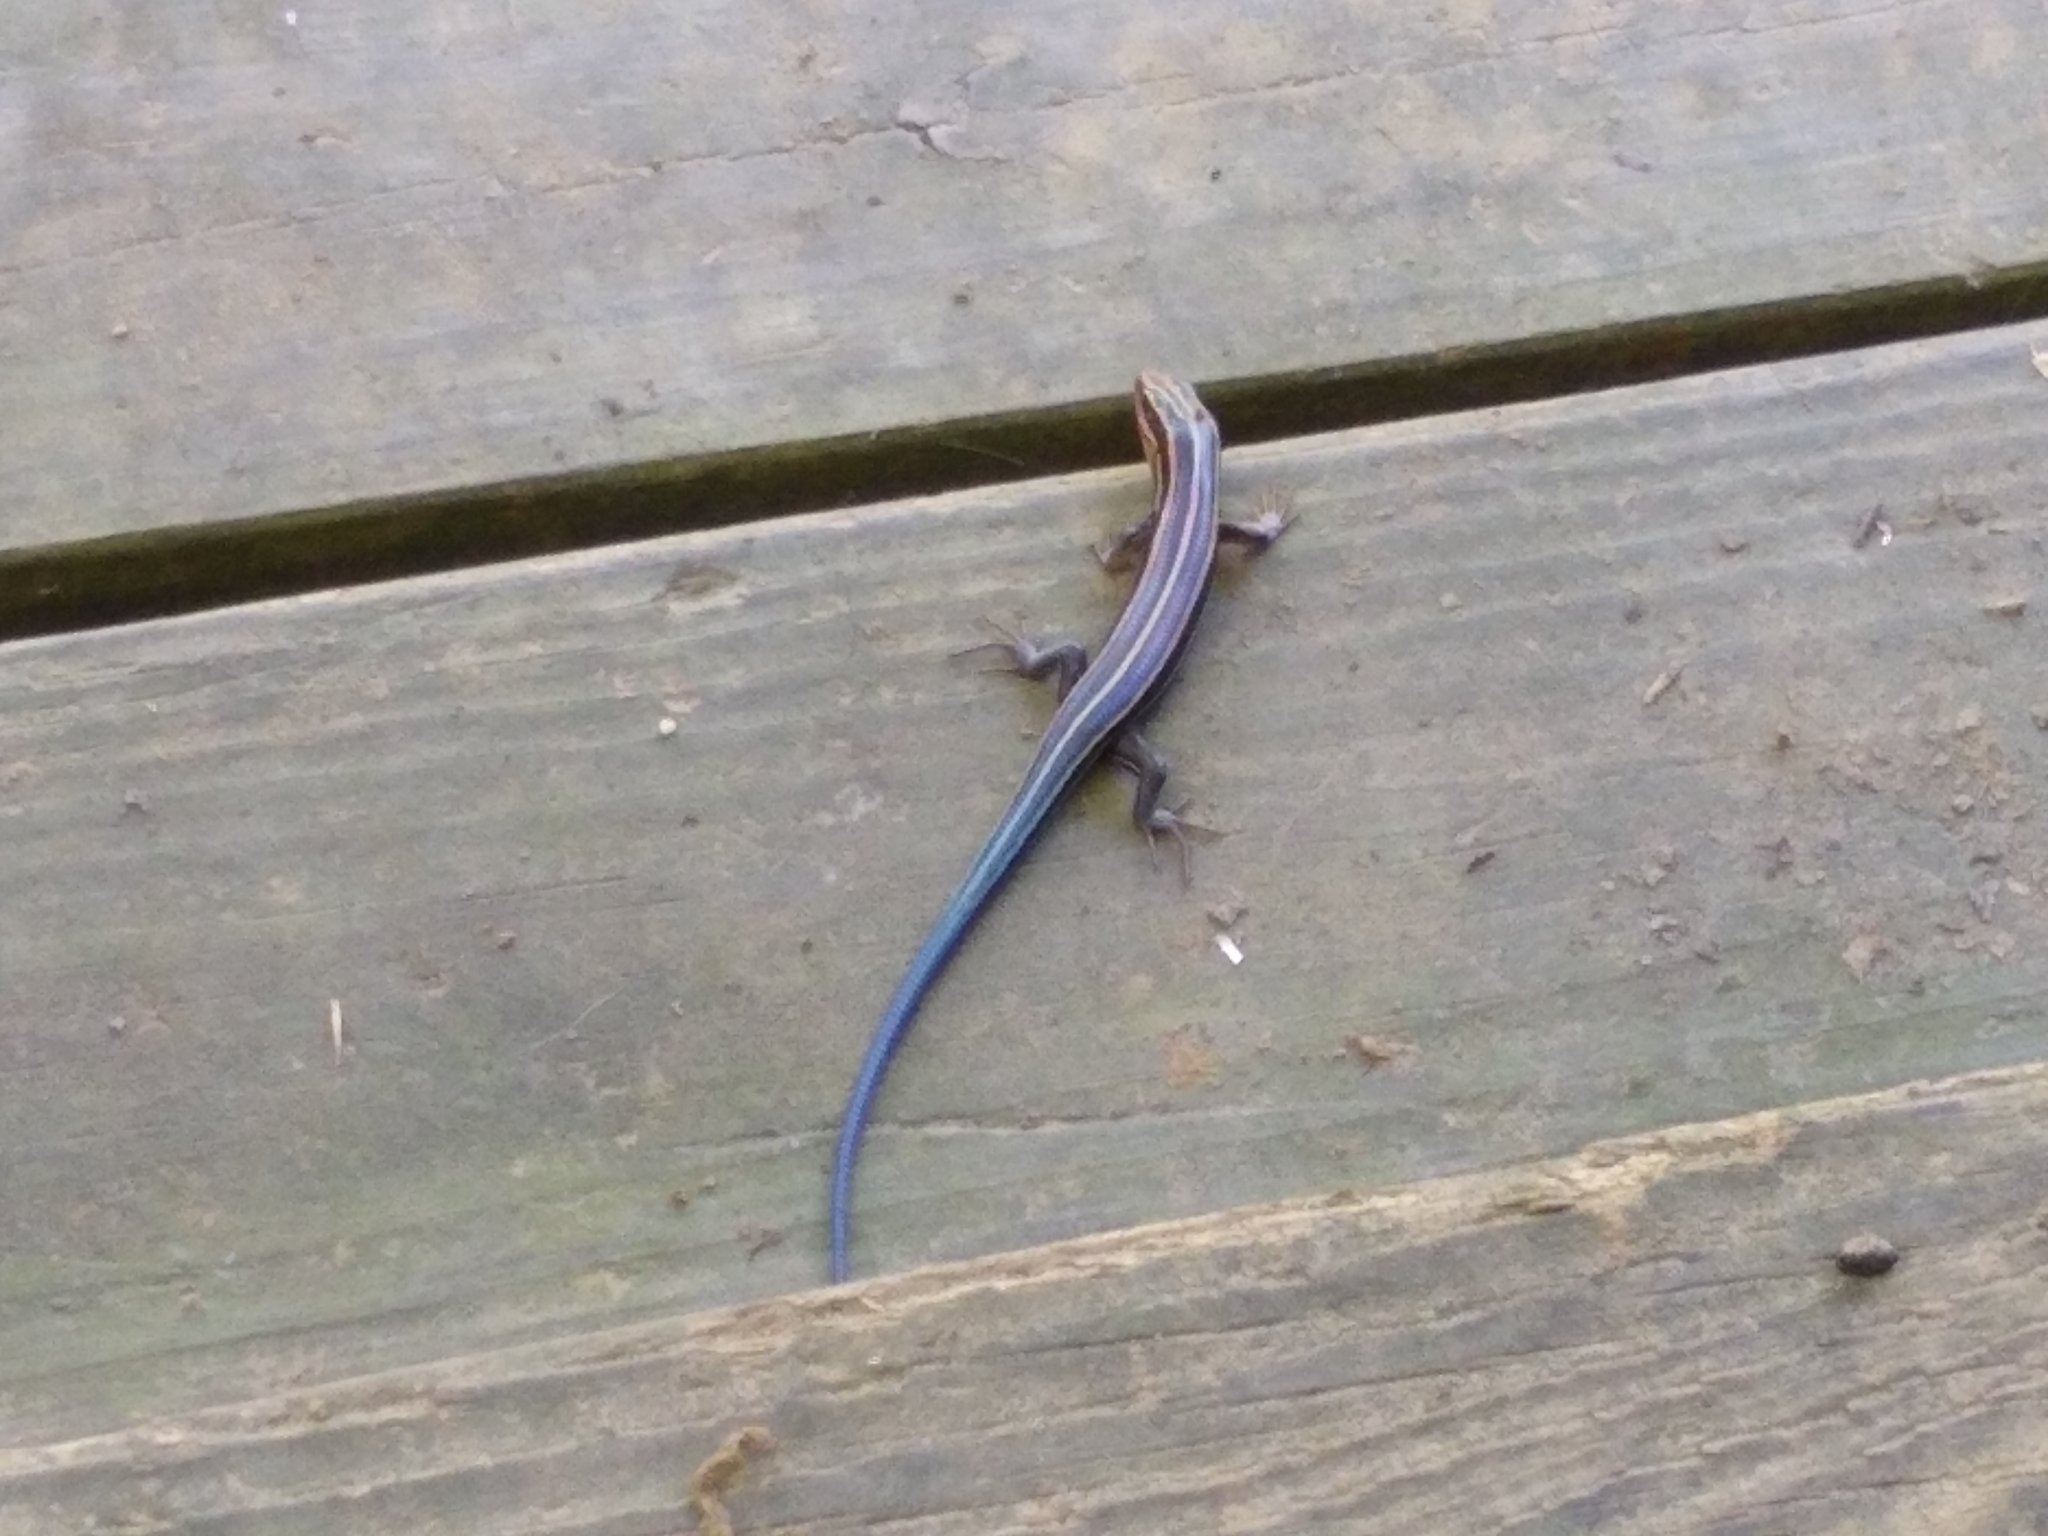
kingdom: Animalia
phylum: Chordata
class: Squamata
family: Scincidae
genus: Plestiodon
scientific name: Plestiodon fasciatus
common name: Five-lined skink
